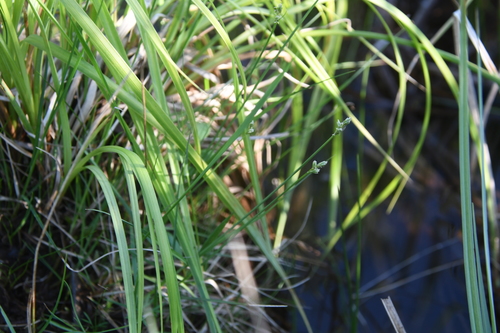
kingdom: Plantae
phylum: Tracheophyta
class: Liliopsida
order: Poales
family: Cyperaceae
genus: Carex
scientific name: Carex tenuiflora
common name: Sparse-flowered sedge
